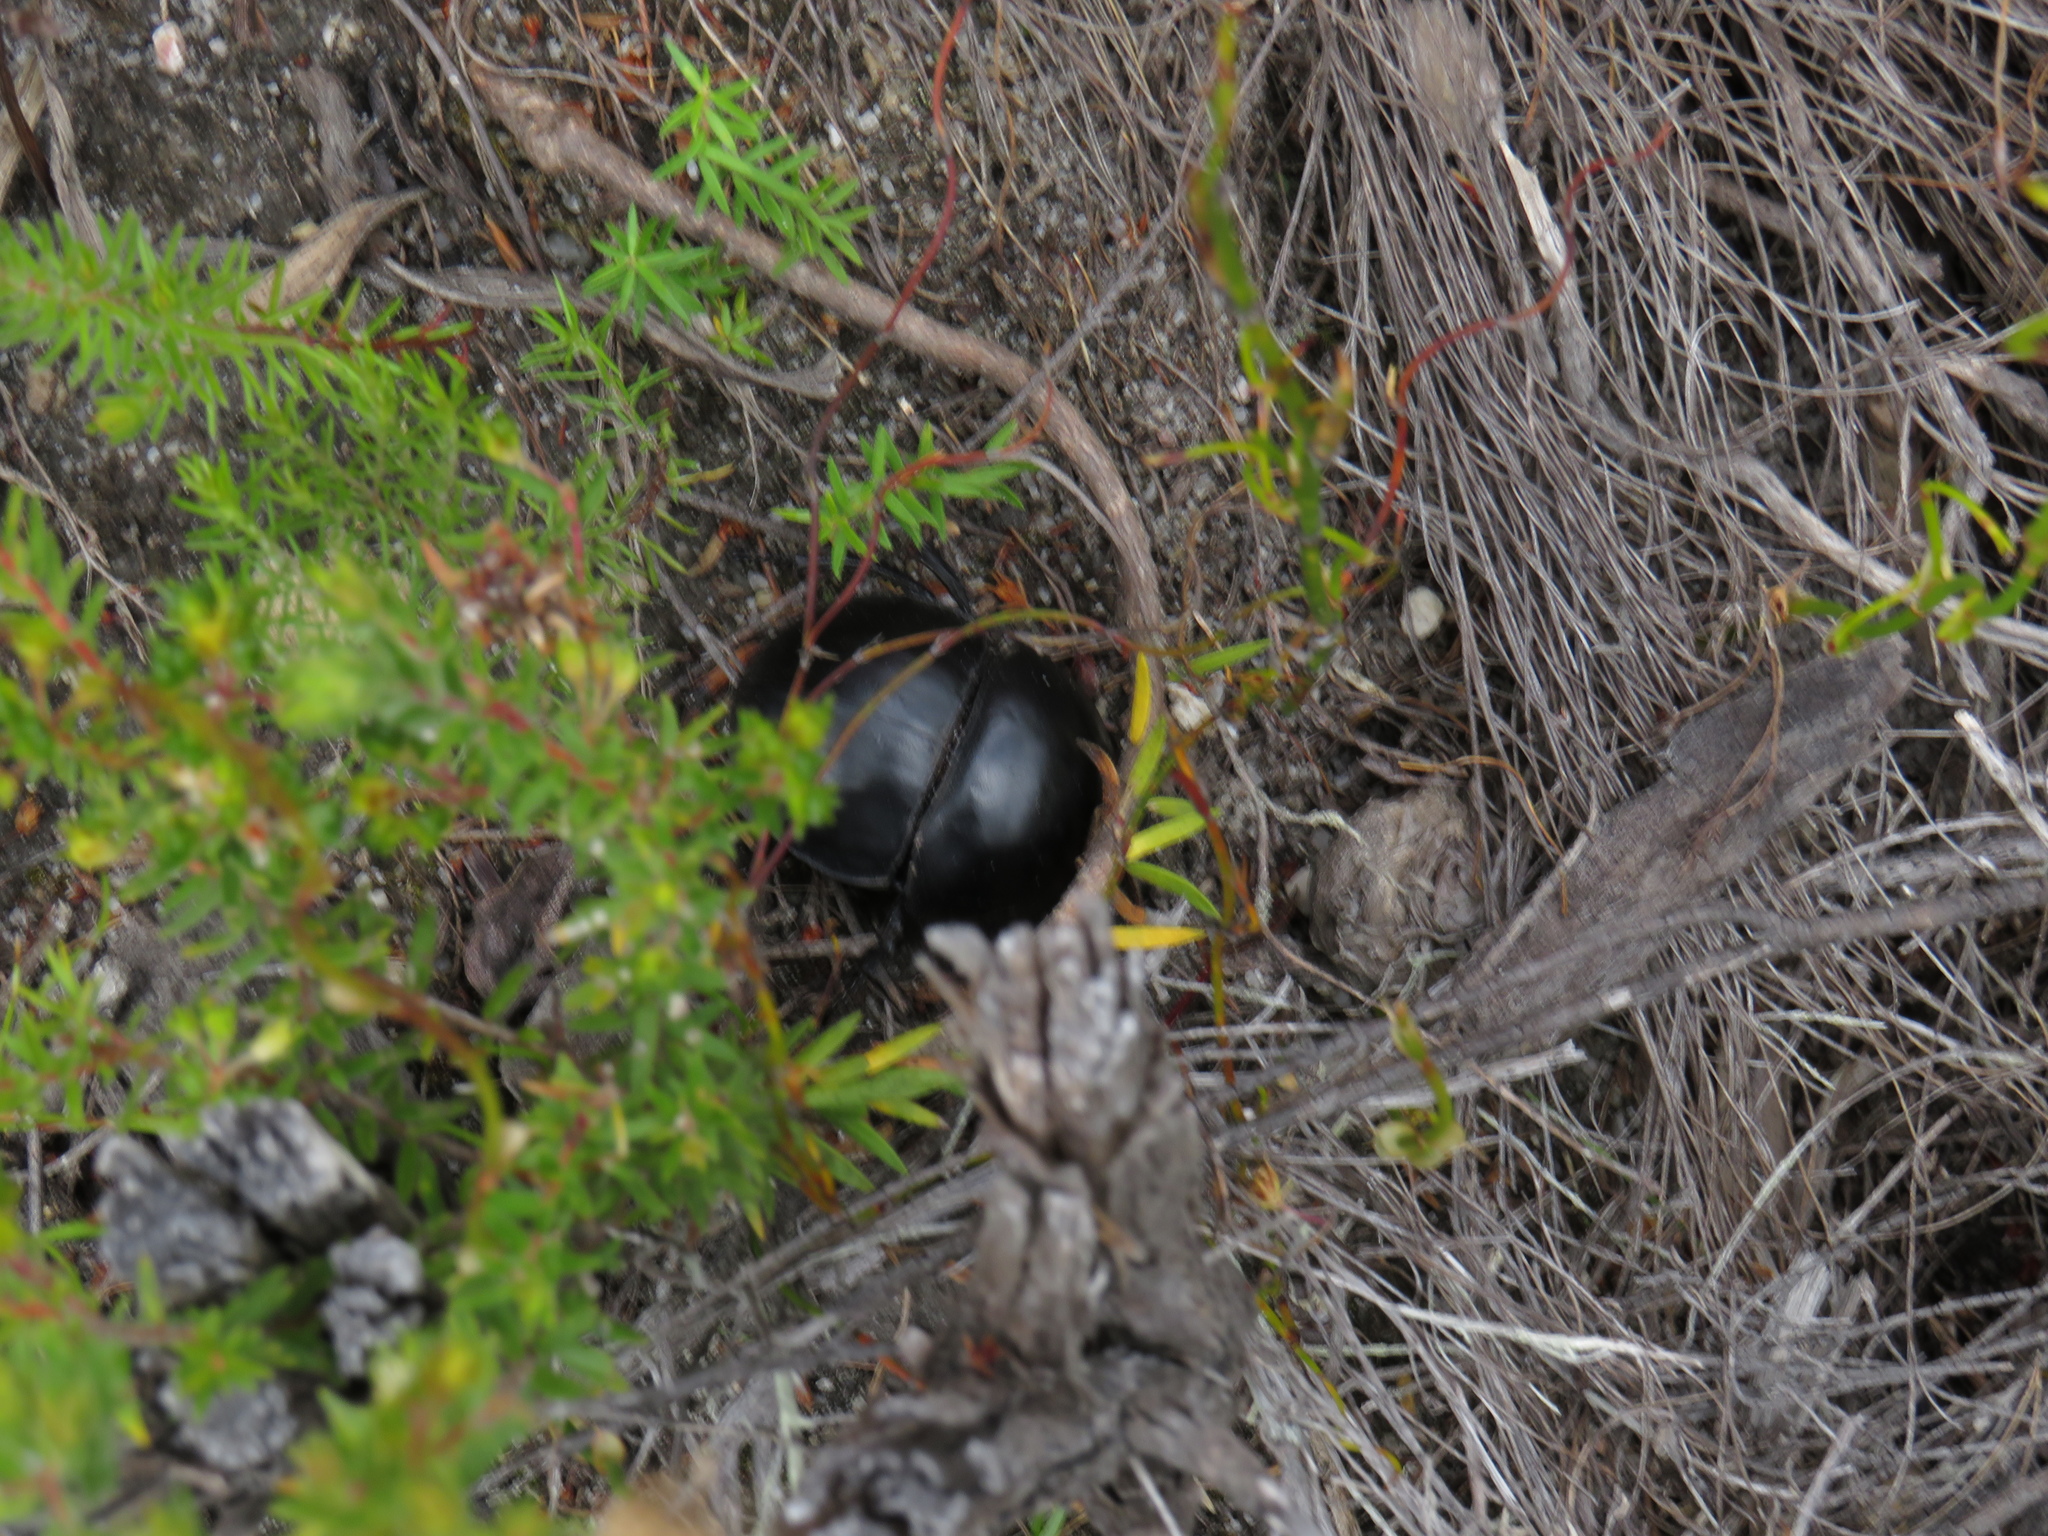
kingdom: Animalia
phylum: Arthropoda
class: Insecta
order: Coleoptera
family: Scarabaeidae
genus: Circellium
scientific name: Circellium bacchus
